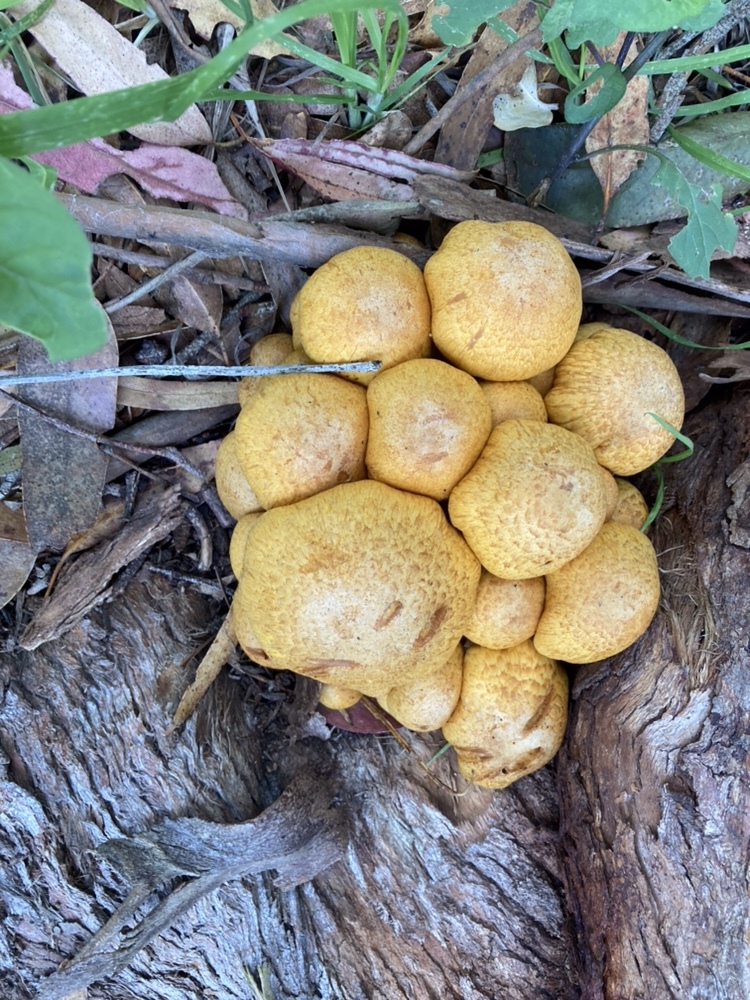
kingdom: Fungi
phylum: Basidiomycota
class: Agaricomycetes
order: Agaricales
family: Hymenogastraceae
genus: Gymnopilus
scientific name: Gymnopilus junonius
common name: Spectacular rustgill
